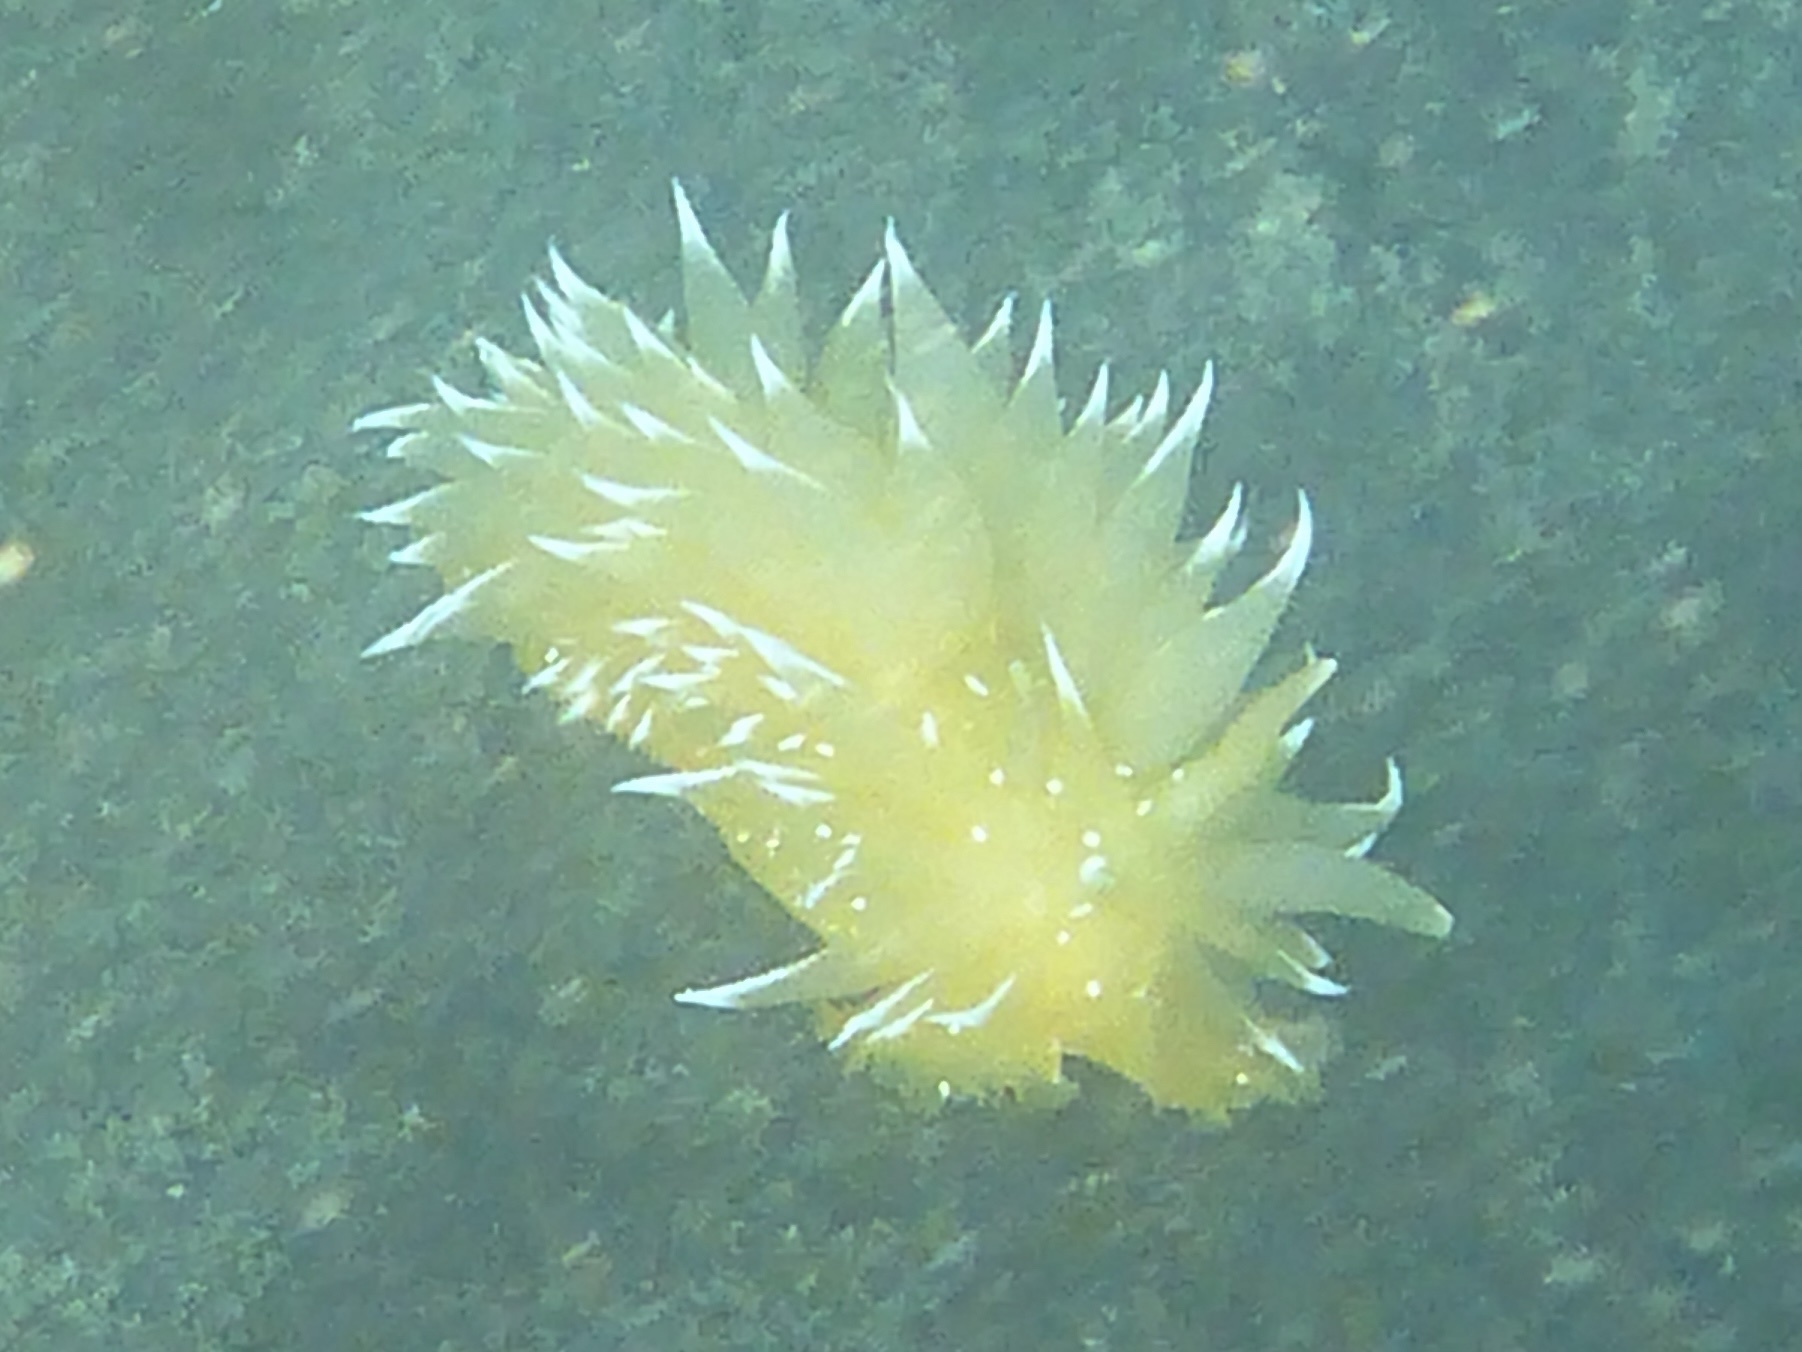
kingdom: Animalia
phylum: Mollusca
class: Gastropoda
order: Nudibranchia
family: Dironidae
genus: Dirona
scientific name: Dirona pellucida
